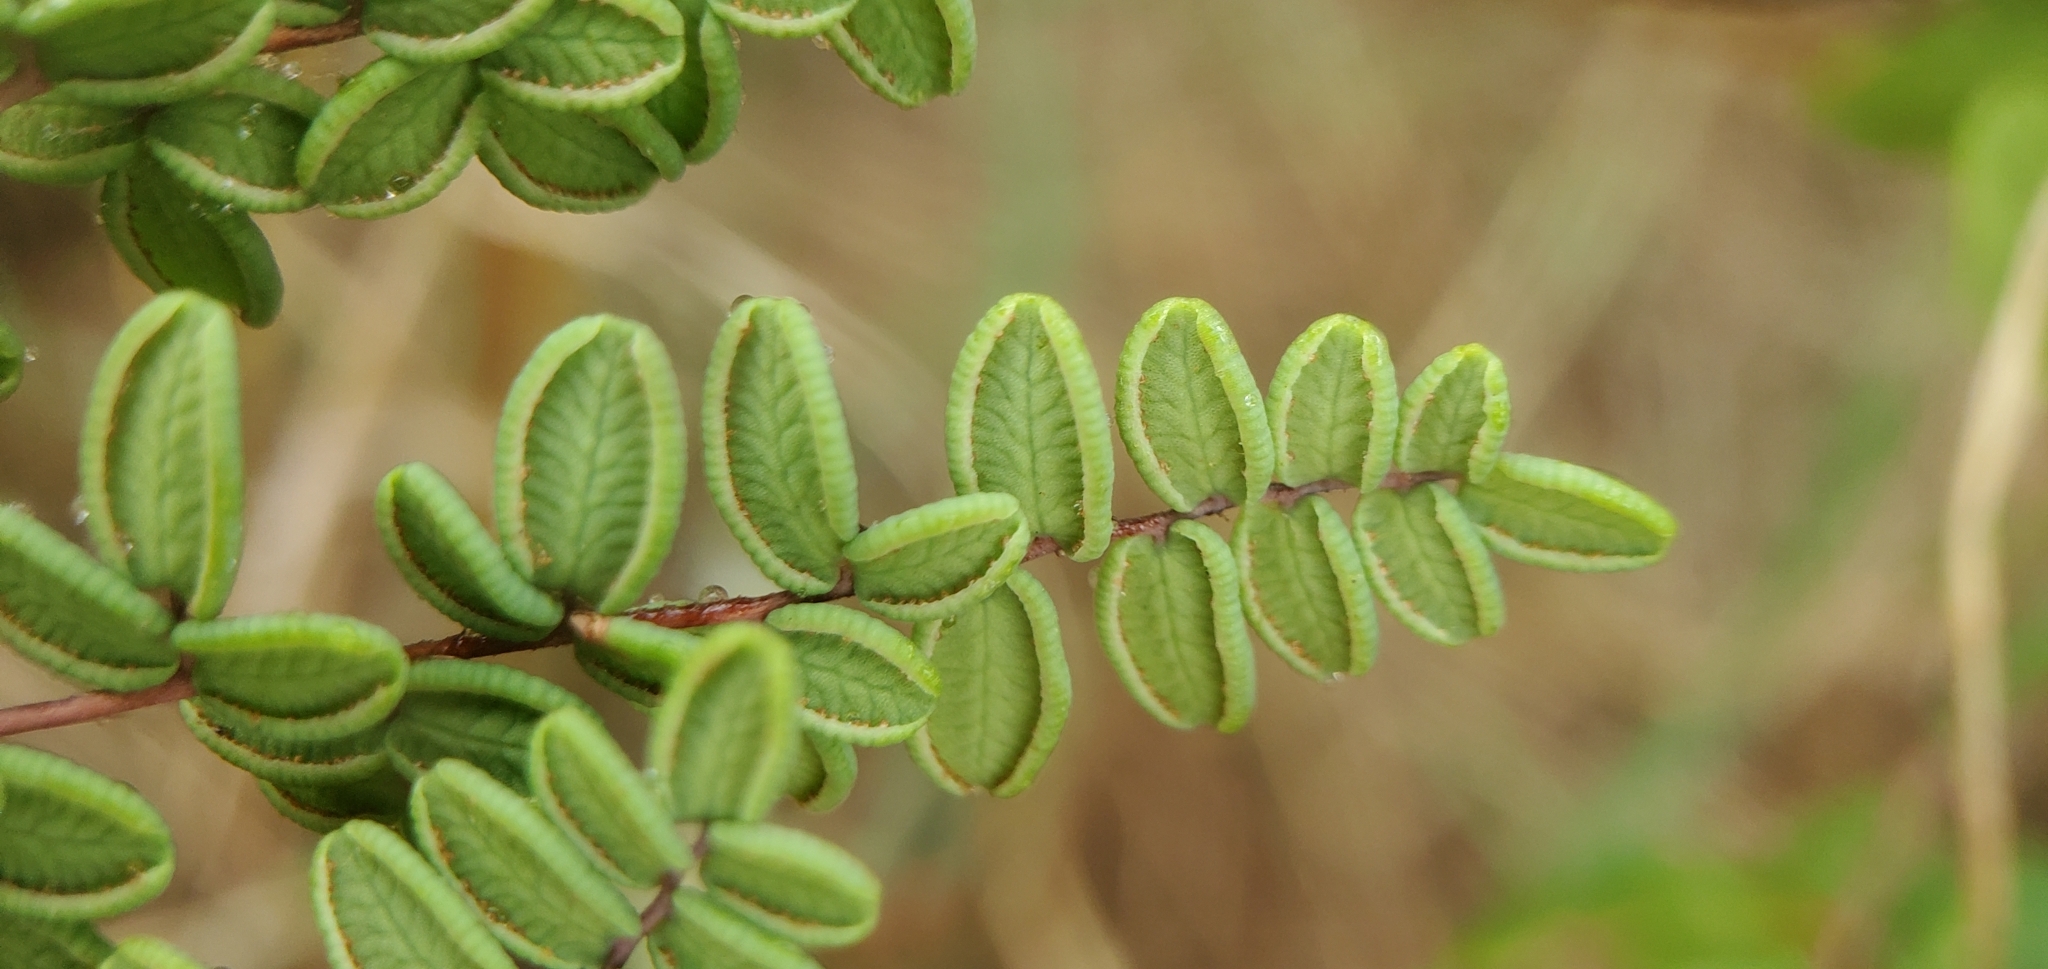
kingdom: Plantae
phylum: Tracheophyta
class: Polypodiopsida
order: Polypodiales
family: Pteridaceae
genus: Pellaea
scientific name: Pellaea andromedifolia
